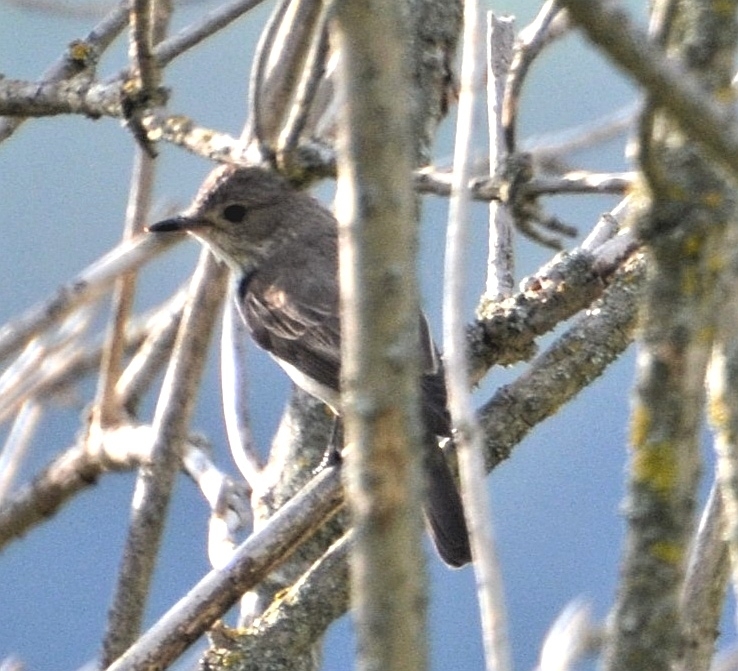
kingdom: Animalia
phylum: Chordata
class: Aves
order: Passeriformes
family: Muscicapidae
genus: Muscicapa
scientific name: Muscicapa striata
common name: Spotted flycatcher
